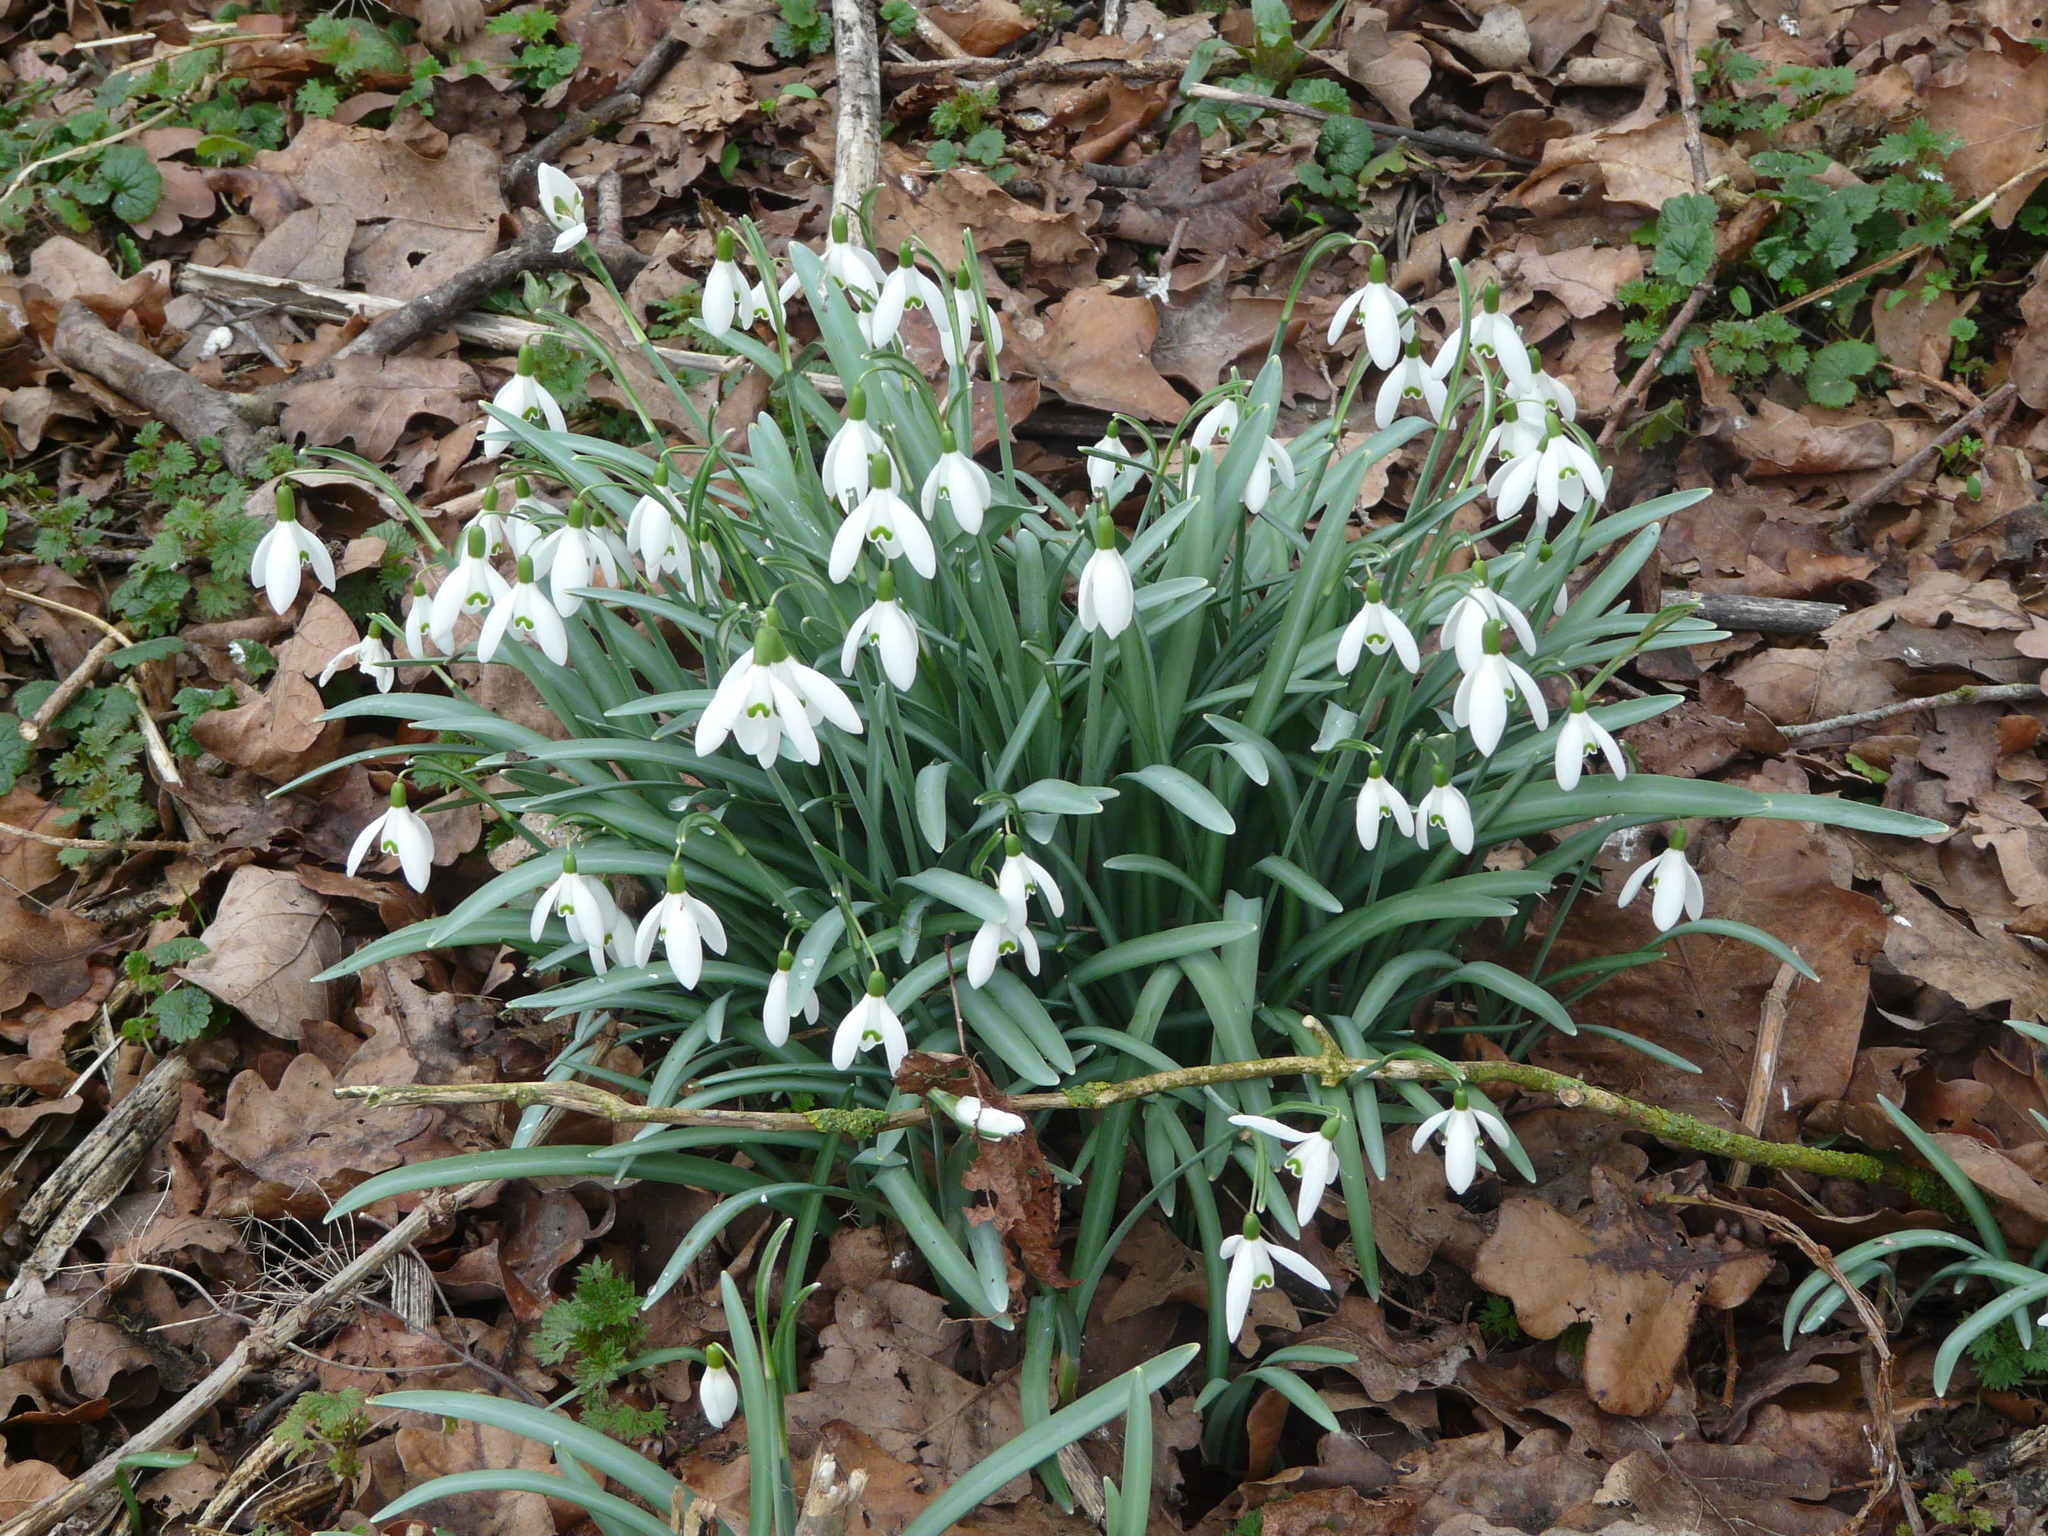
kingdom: Plantae
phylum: Tracheophyta
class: Liliopsida
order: Asparagales
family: Amaryllidaceae
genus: Galanthus
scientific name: Galanthus nivalis
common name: Snowdrop
